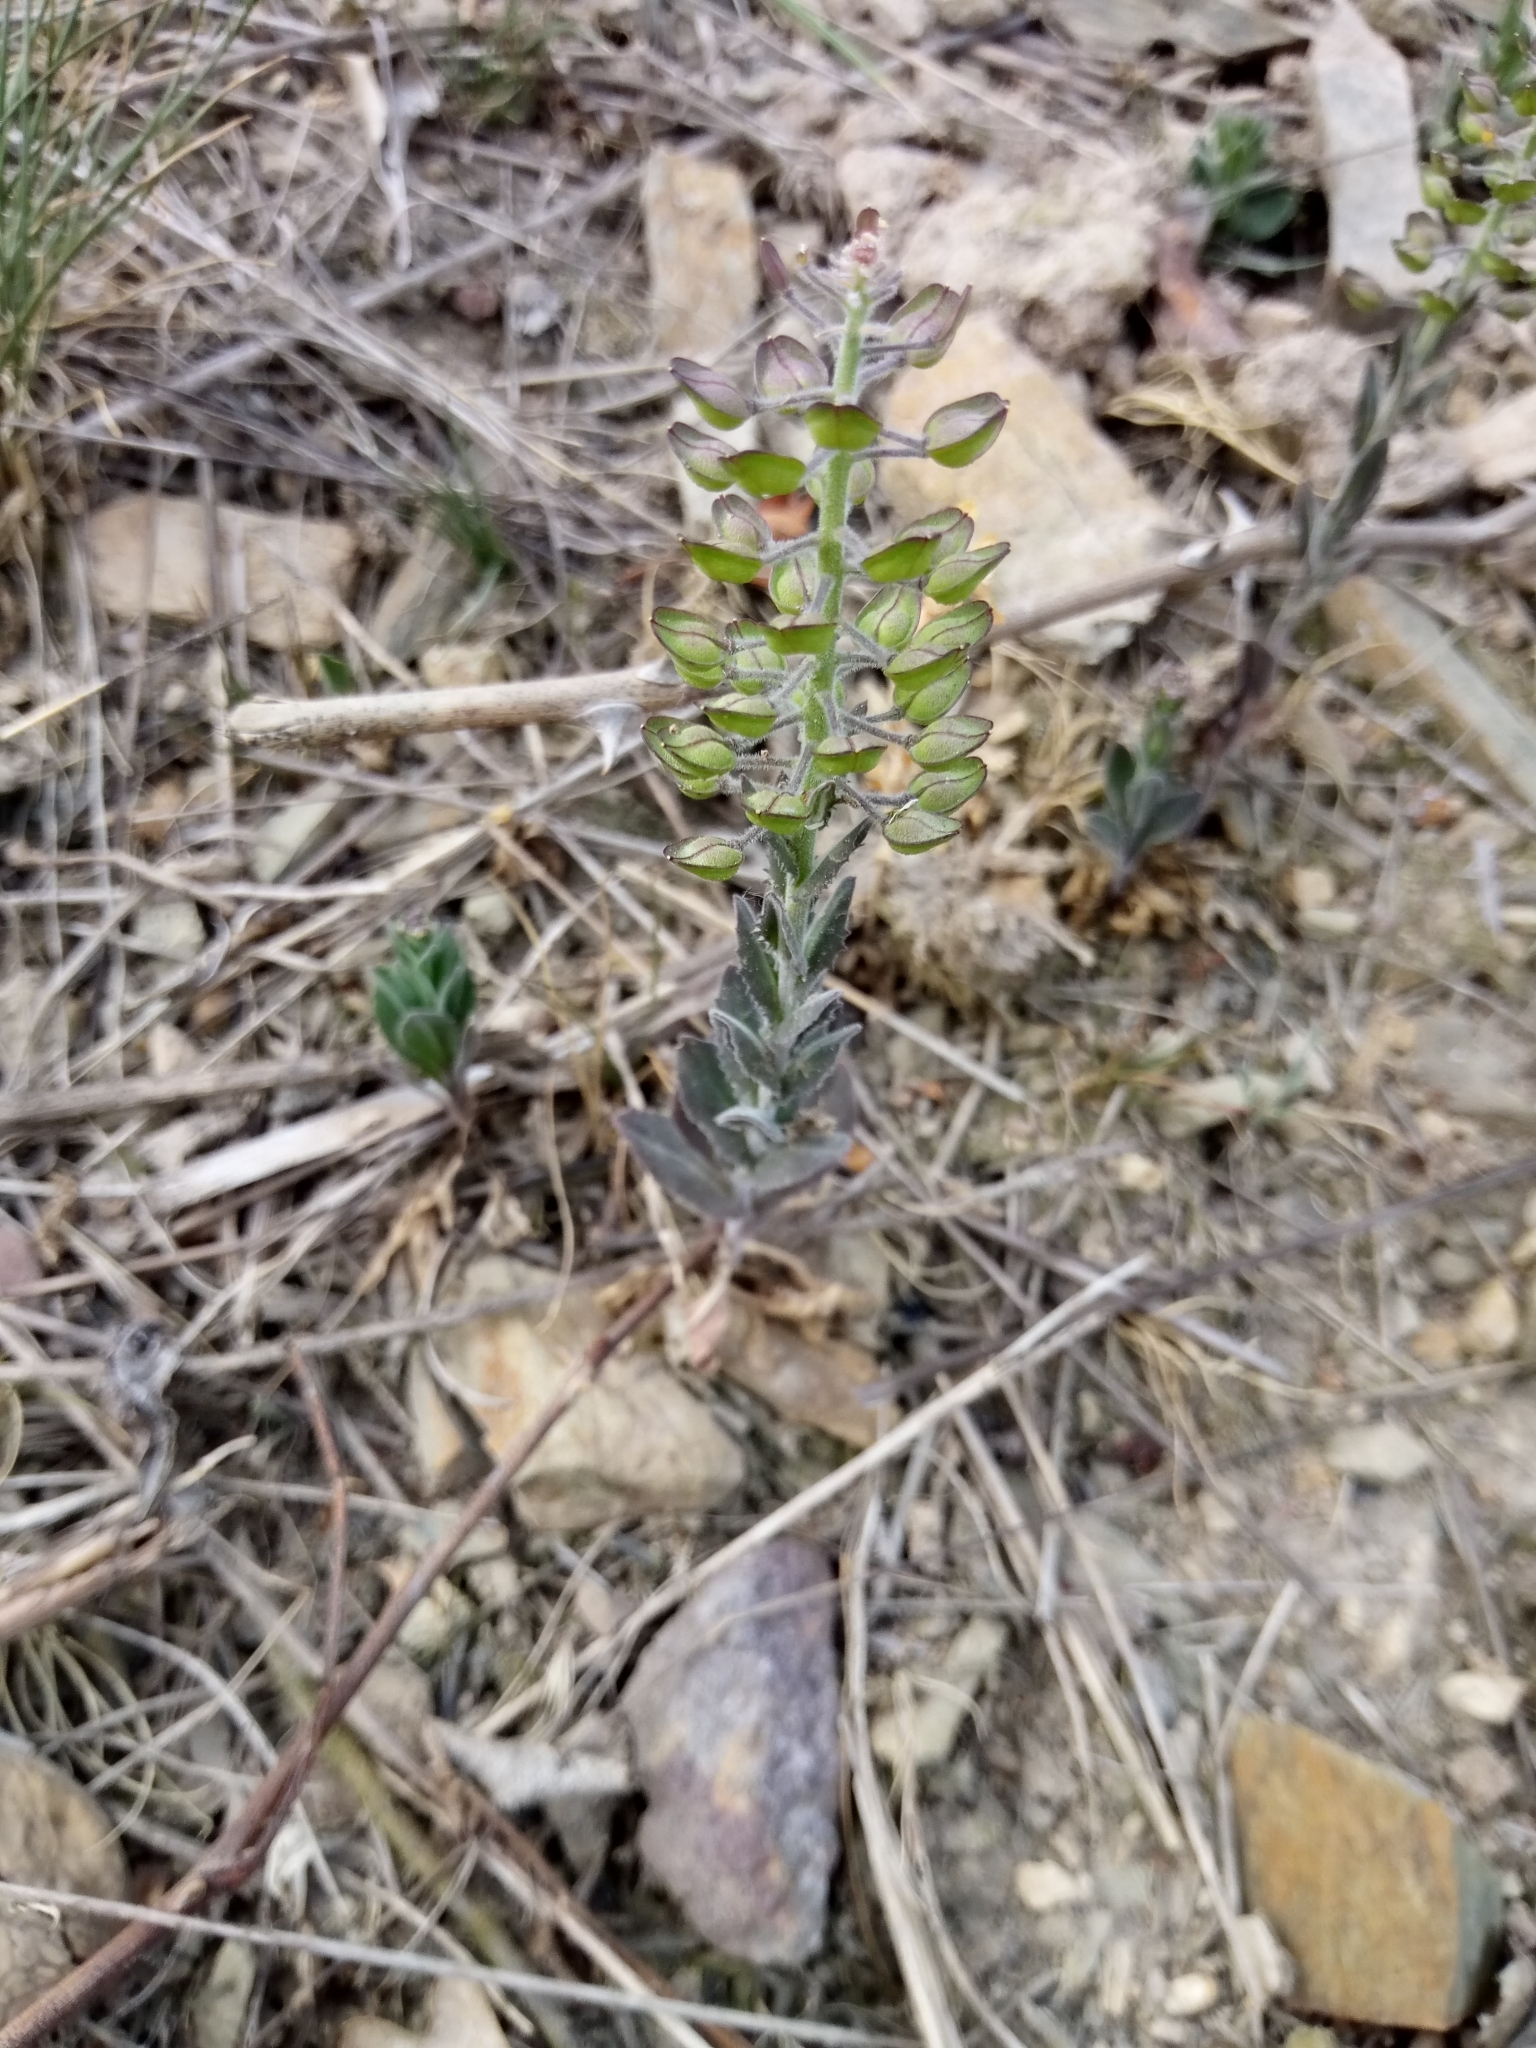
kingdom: Plantae
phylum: Tracheophyta
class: Magnoliopsida
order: Brassicales
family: Brassicaceae
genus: Lepidium
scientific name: Lepidium campestre
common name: Field pepperwort
